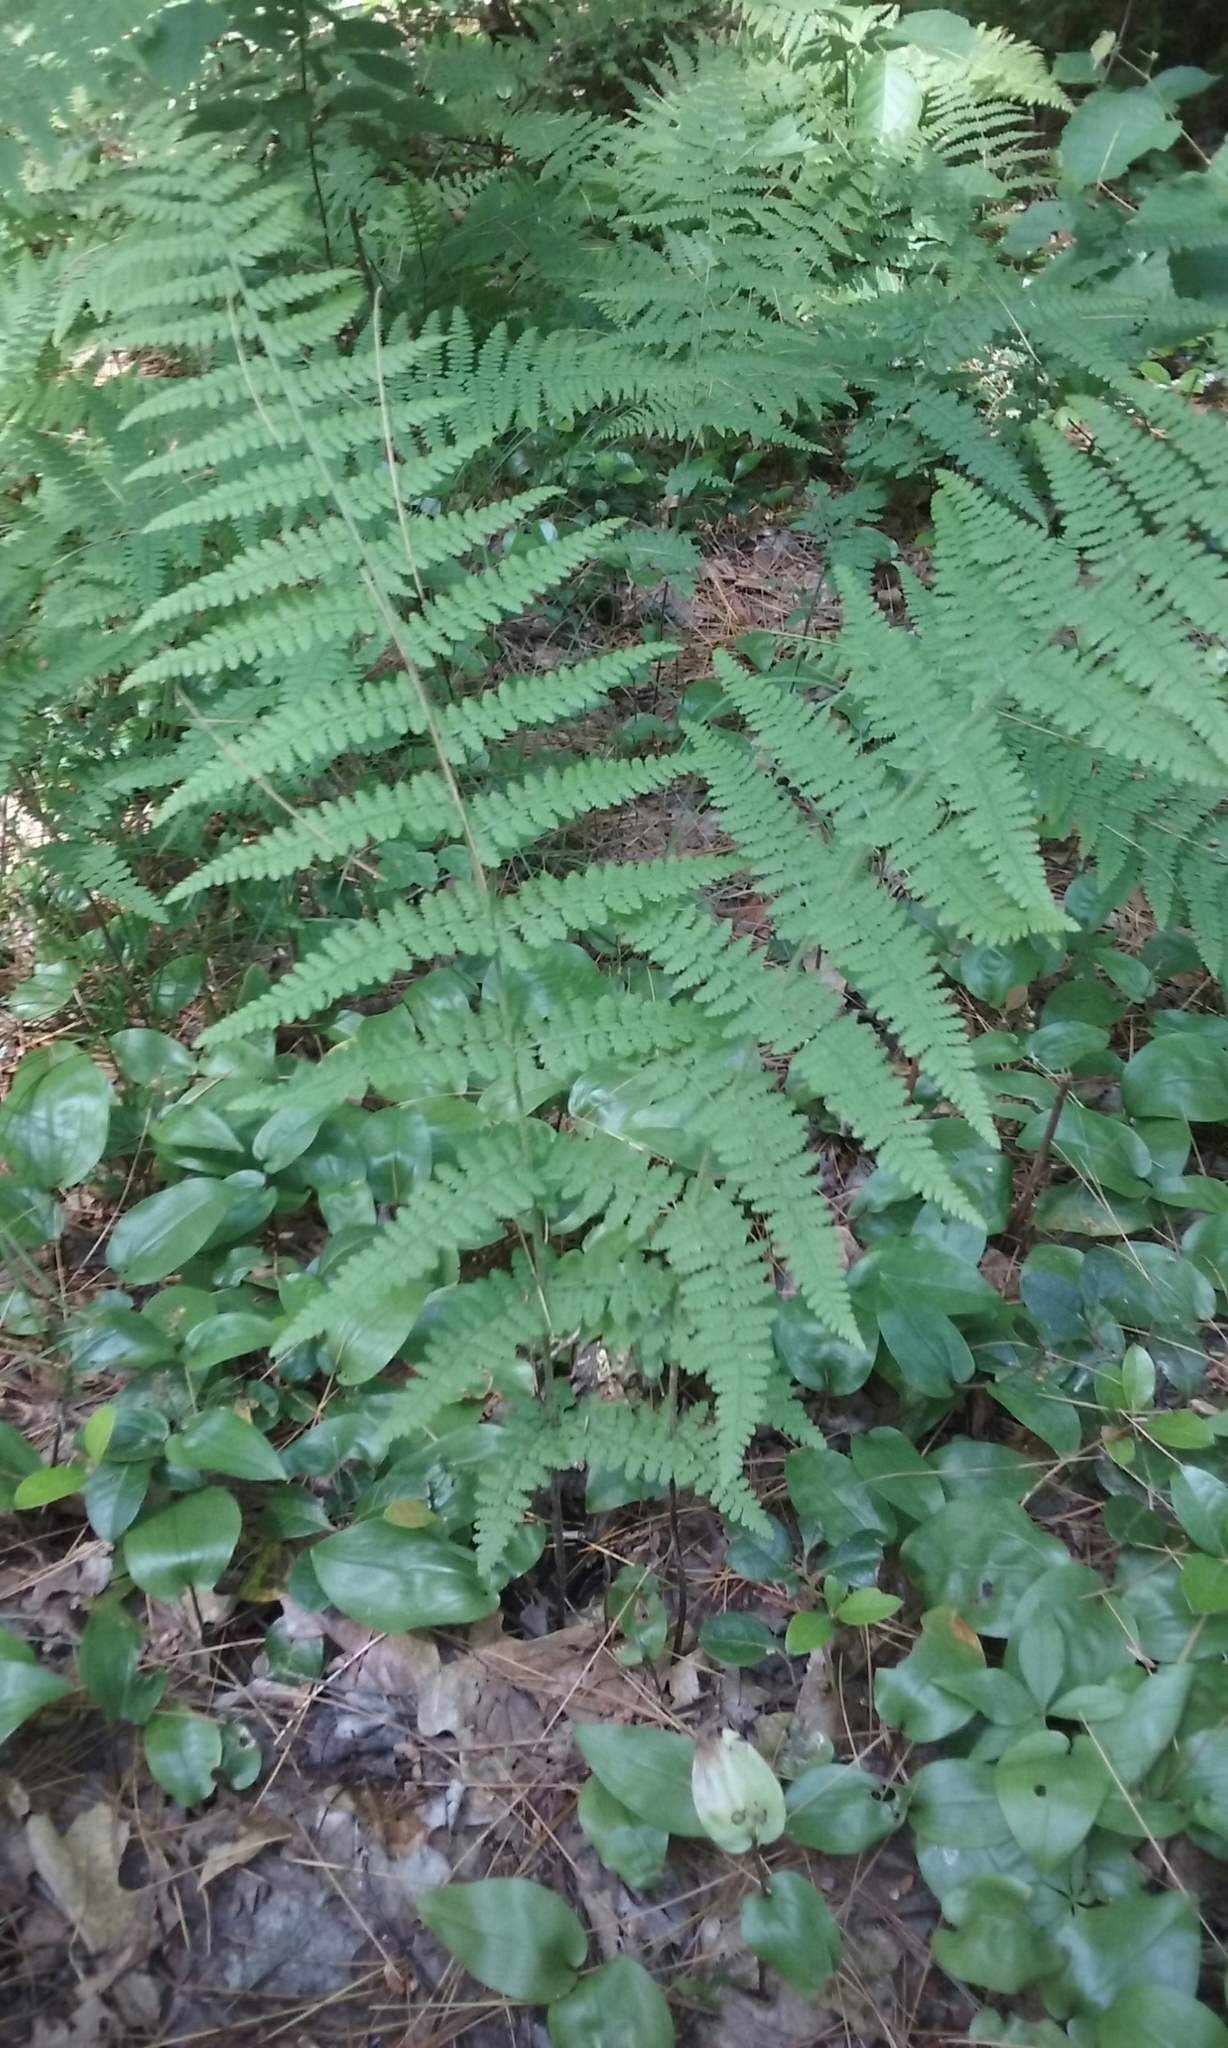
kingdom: Plantae
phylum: Tracheophyta
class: Polypodiopsida
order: Polypodiales
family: Dennstaedtiaceae
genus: Sitobolium
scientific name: Sitobolium punctilobum
